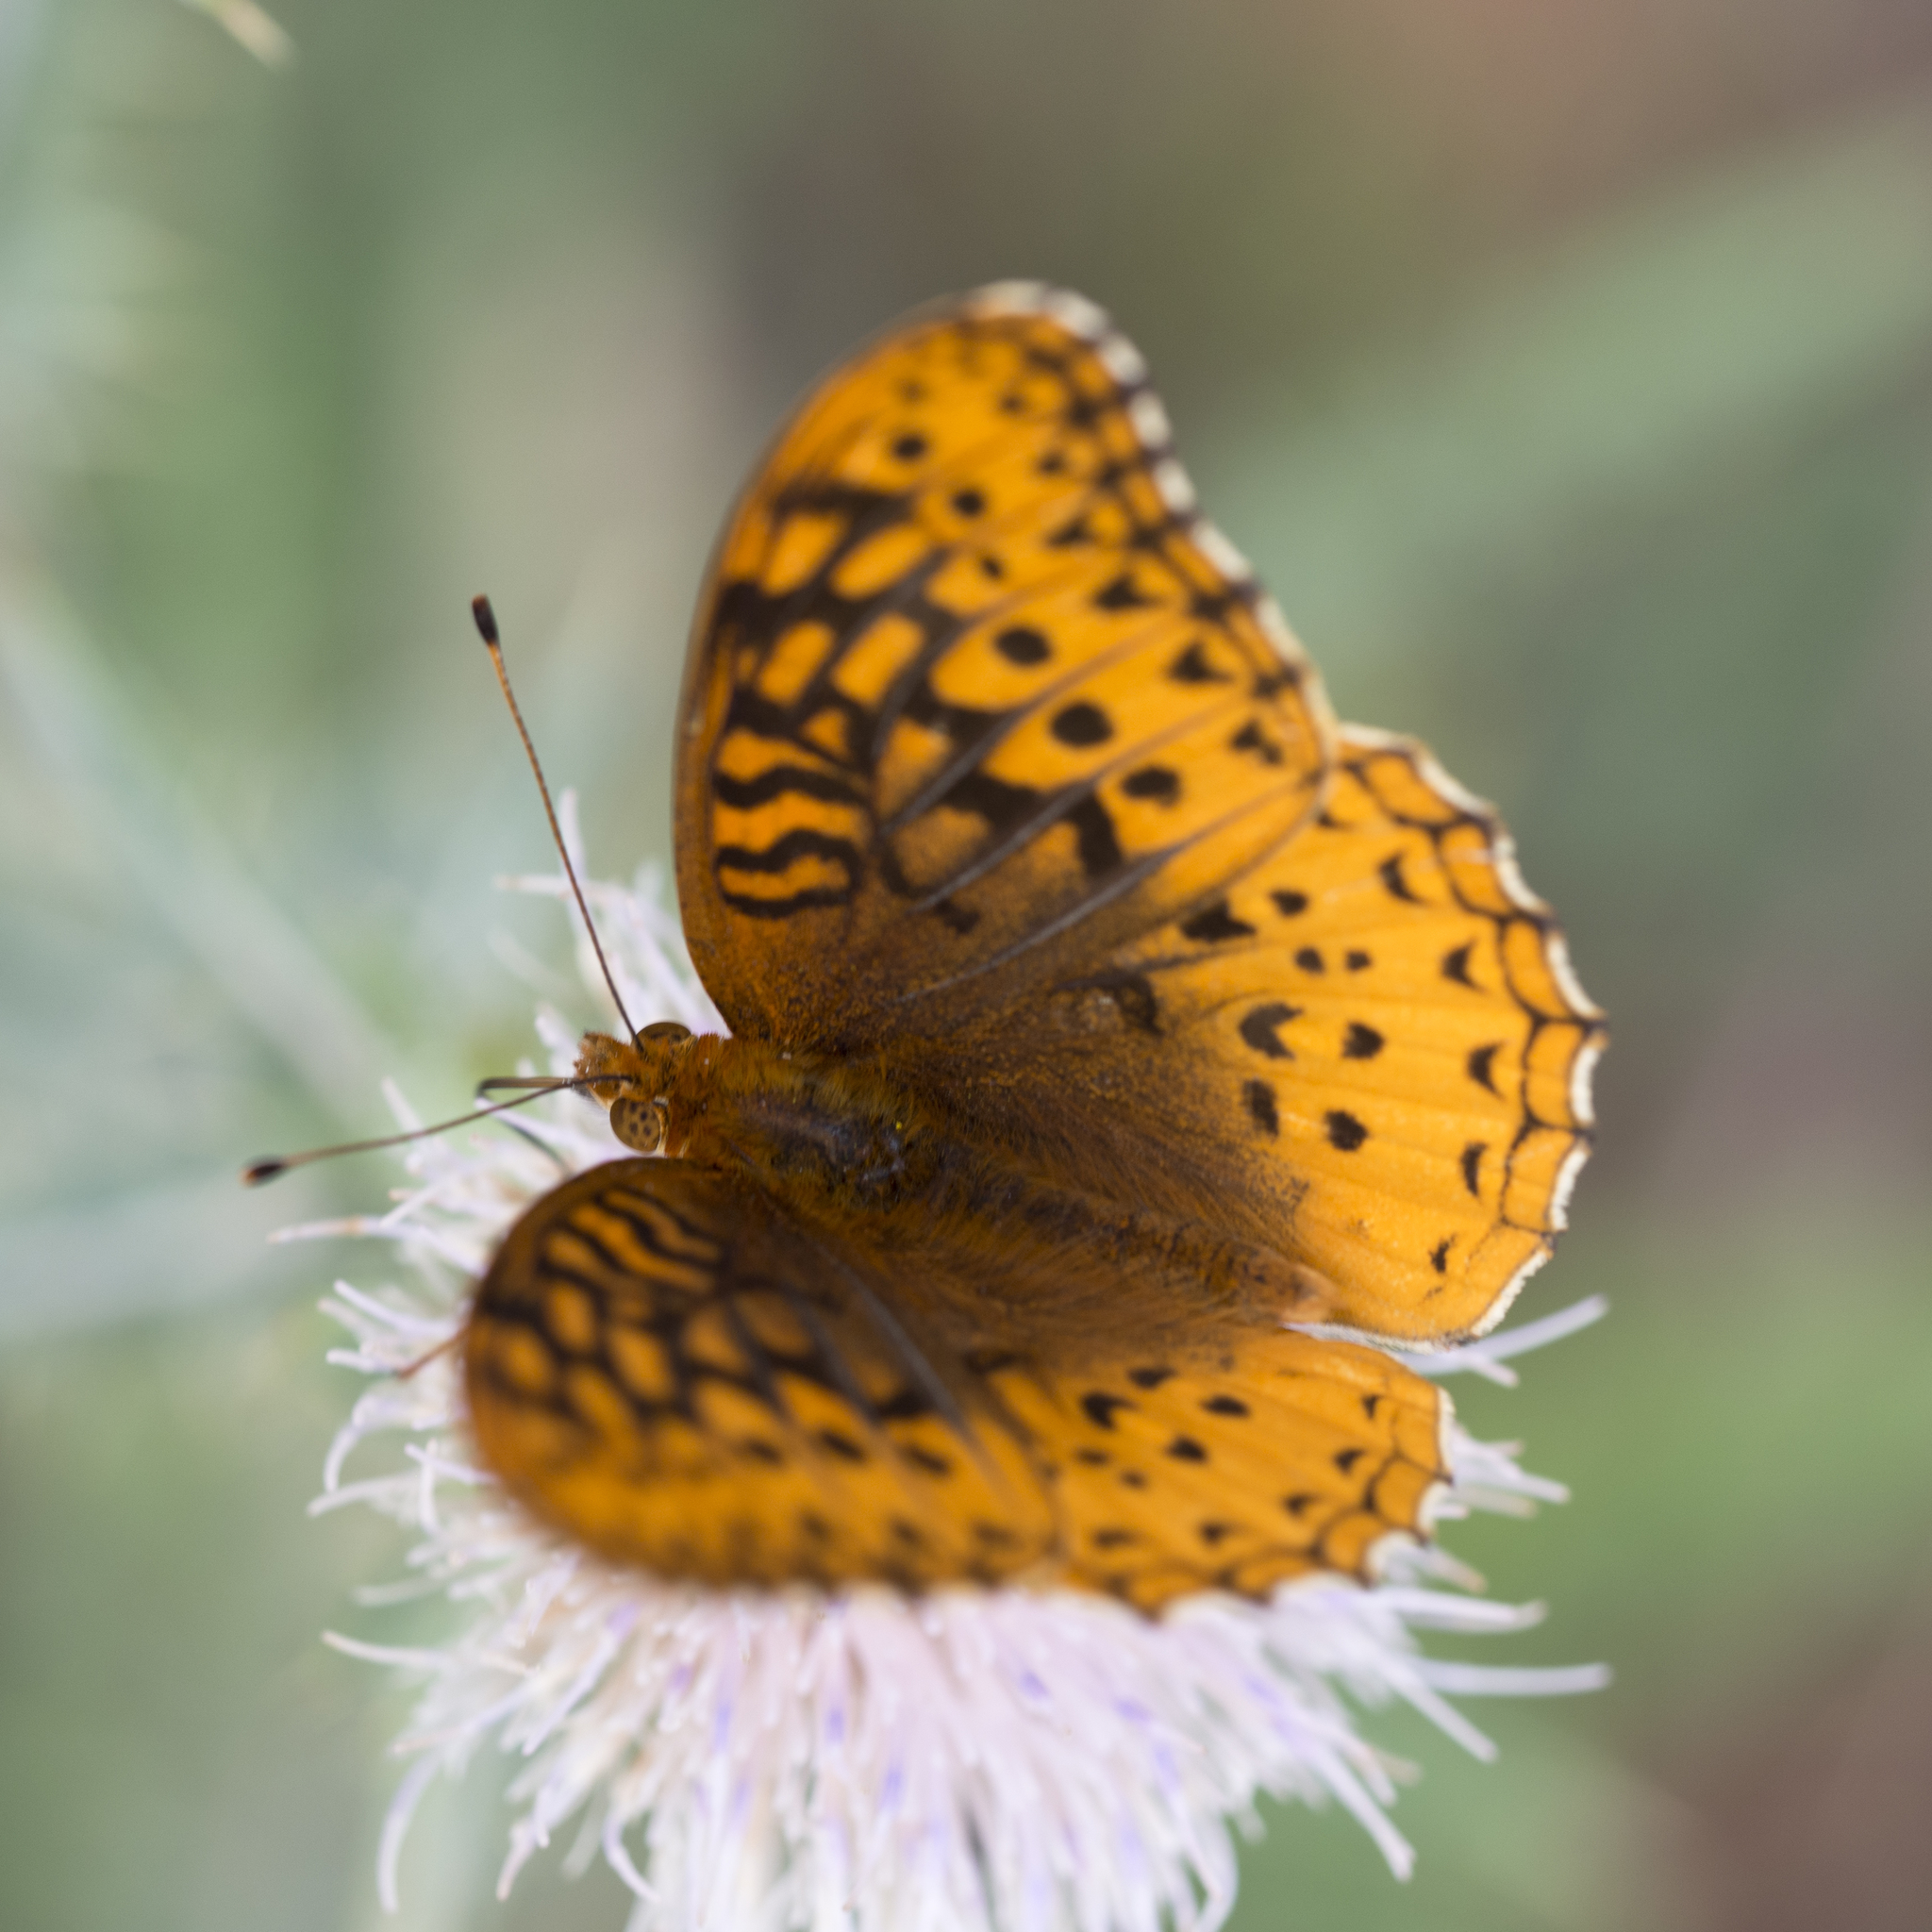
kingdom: Animalia
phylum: Arthropoda
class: Insecta
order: Lepidoptera
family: Nymphalidae
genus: Speyeria
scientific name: Speyeria cybele
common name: Great spangled fritillary
